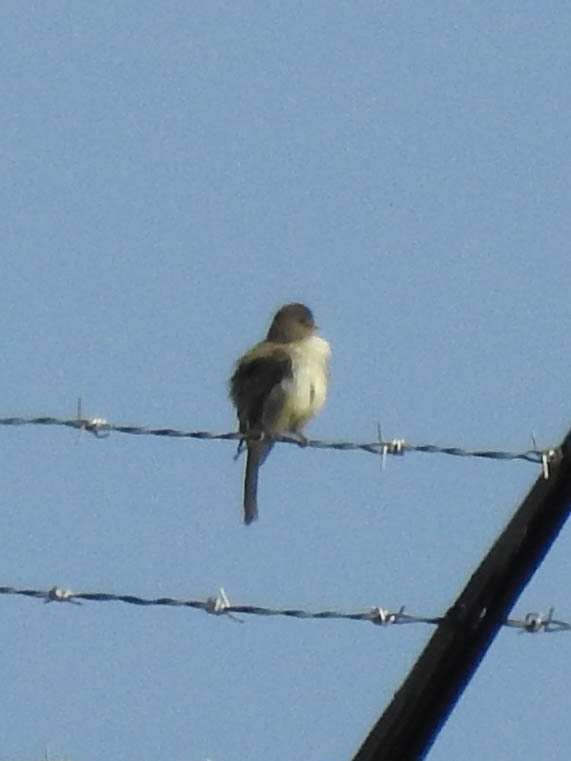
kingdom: Animalia
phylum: Chordata
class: Aves
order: Passeriformes
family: Tyrannidae
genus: Sayornis
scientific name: Sayornis phoebe
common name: Eastern phoebe
